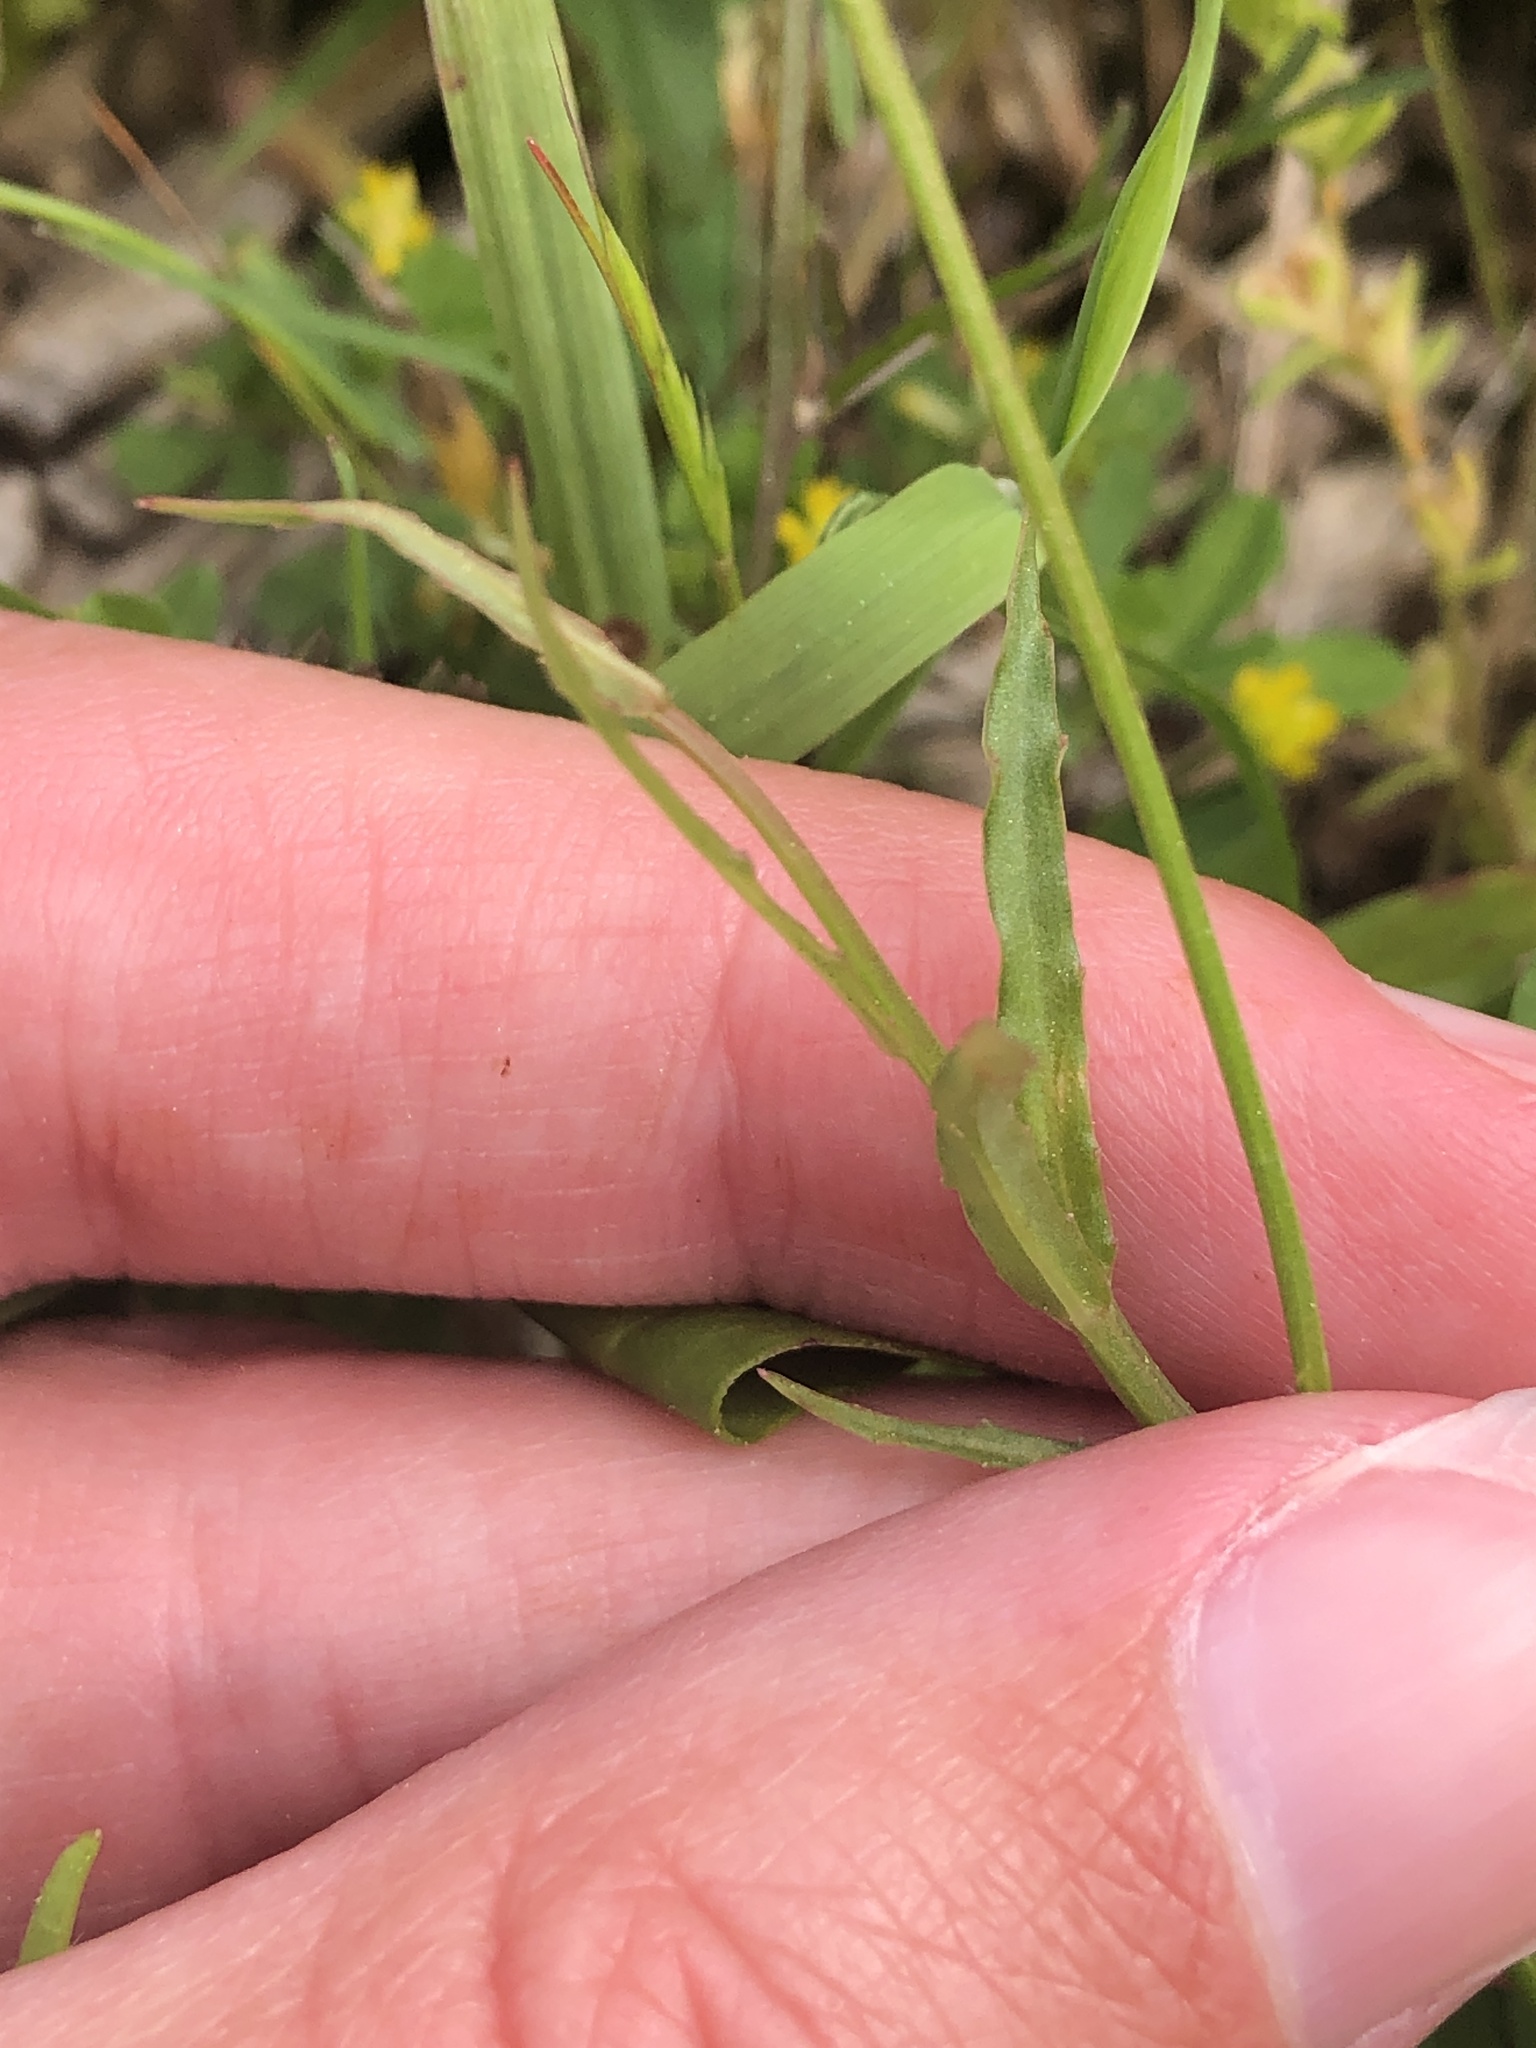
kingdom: Plantae
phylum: Tracheophyta
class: Magnoliopsida
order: Asterales
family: Campanulaceae
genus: Wahlenbergia
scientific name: Wahlenbergia marginata
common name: Southern rockbell
